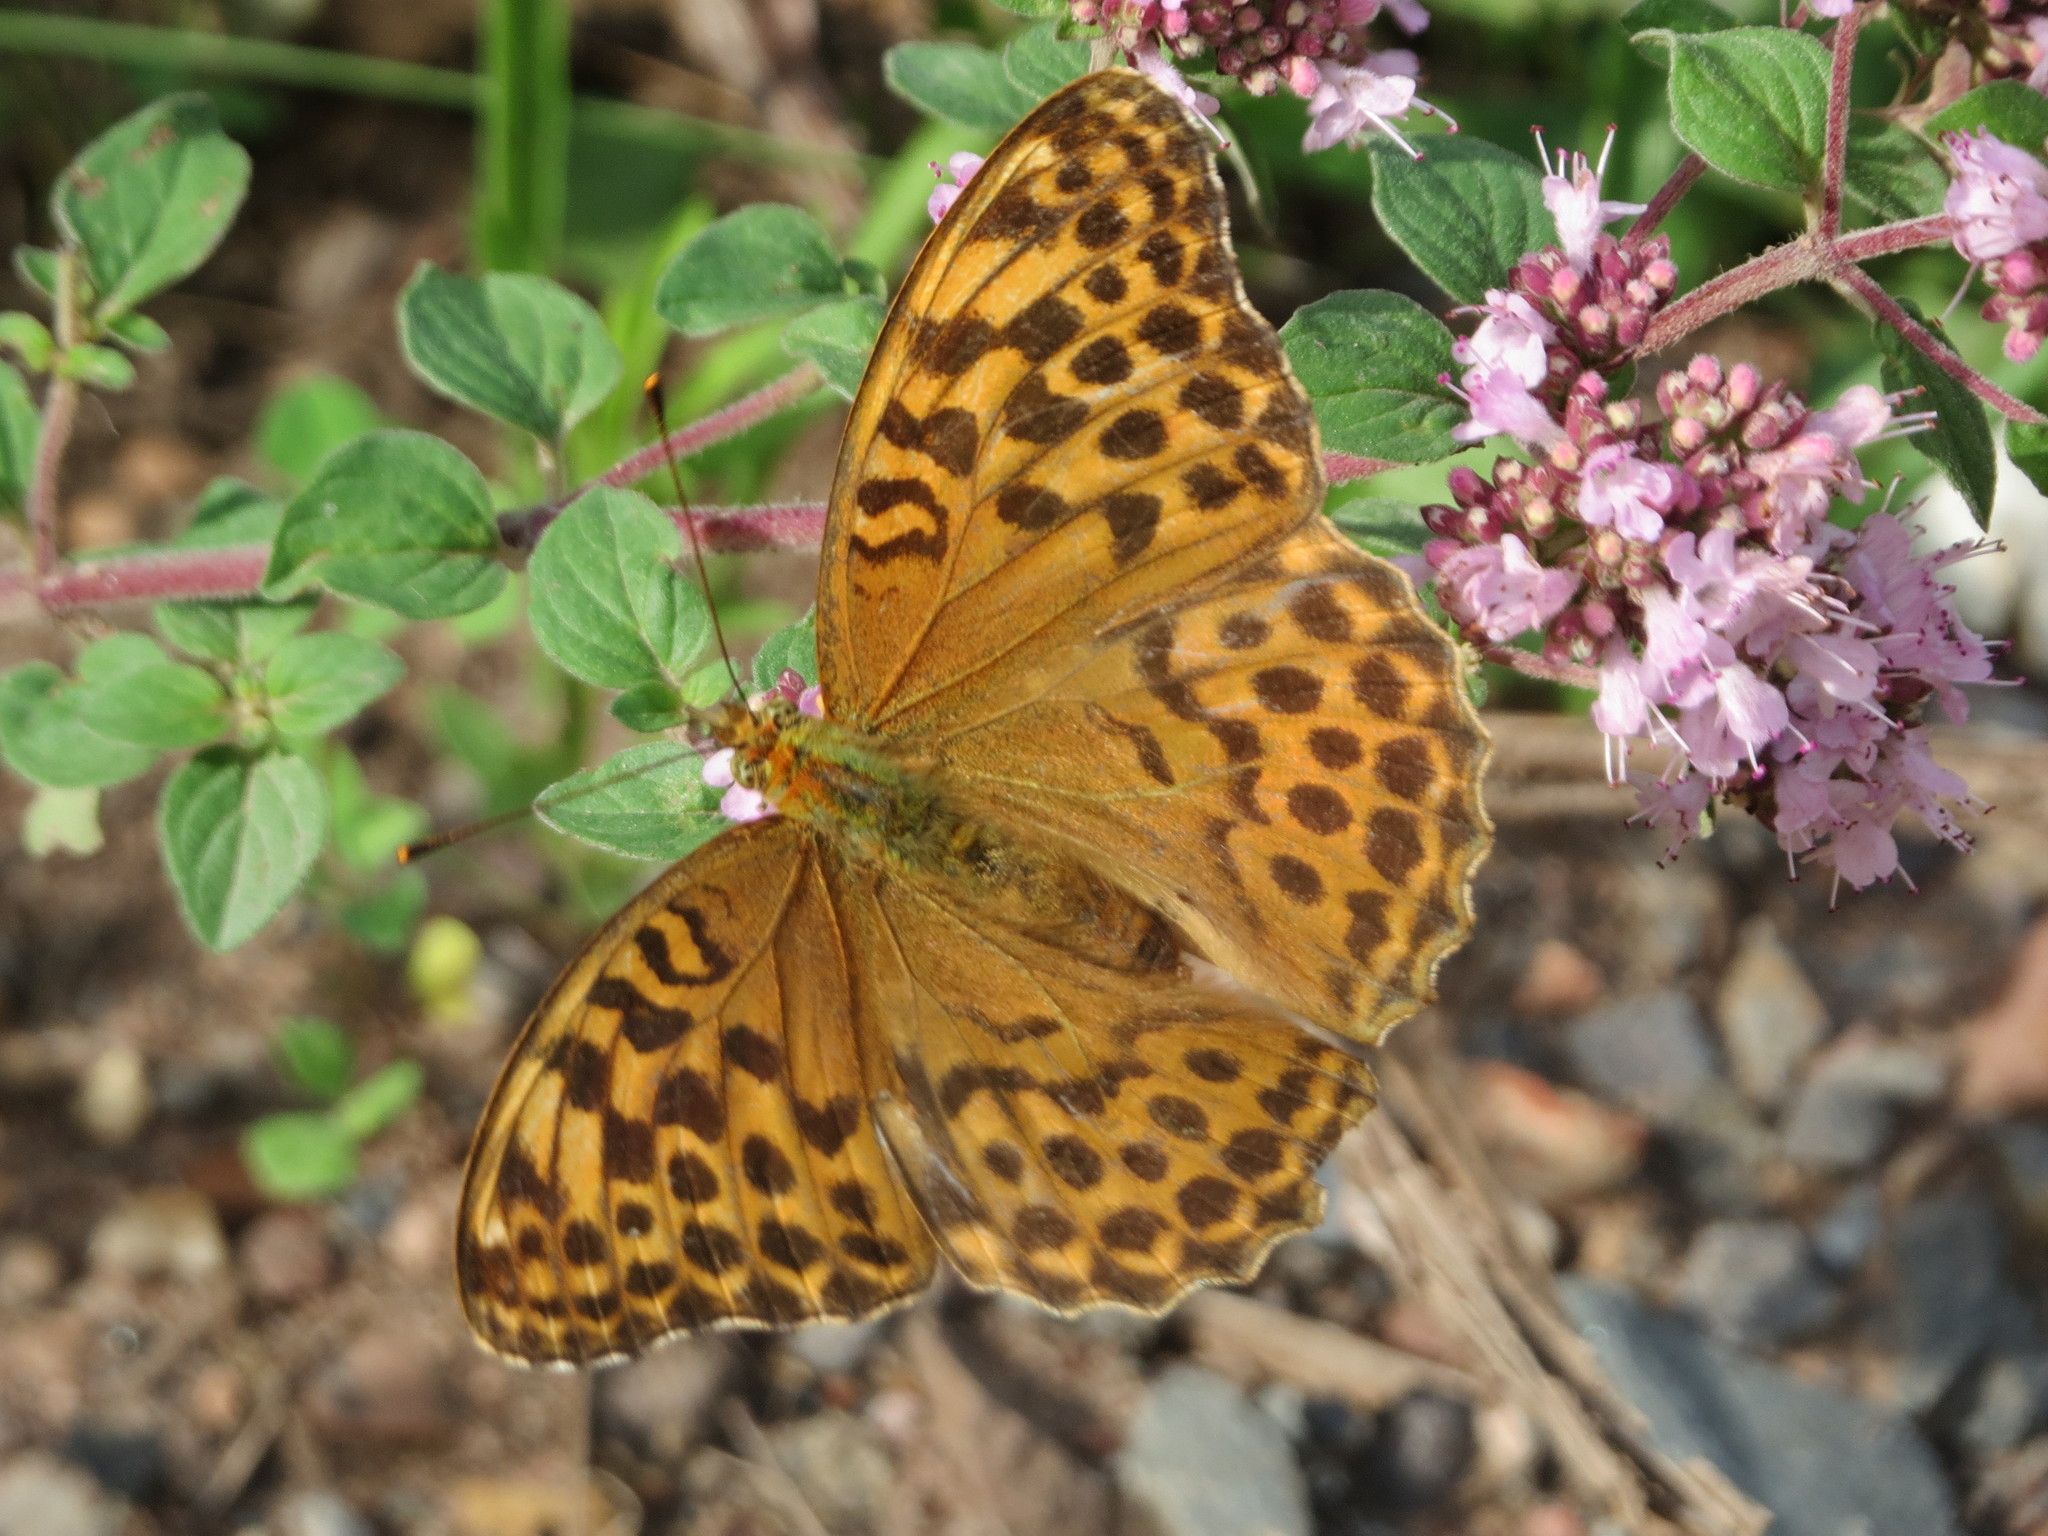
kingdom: Animalia
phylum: Arthropoda
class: Insecta
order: Lepidoptera
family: Nymphalidae
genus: Argynnis
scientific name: Argynnis paphia
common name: Silver-washed fritillary
